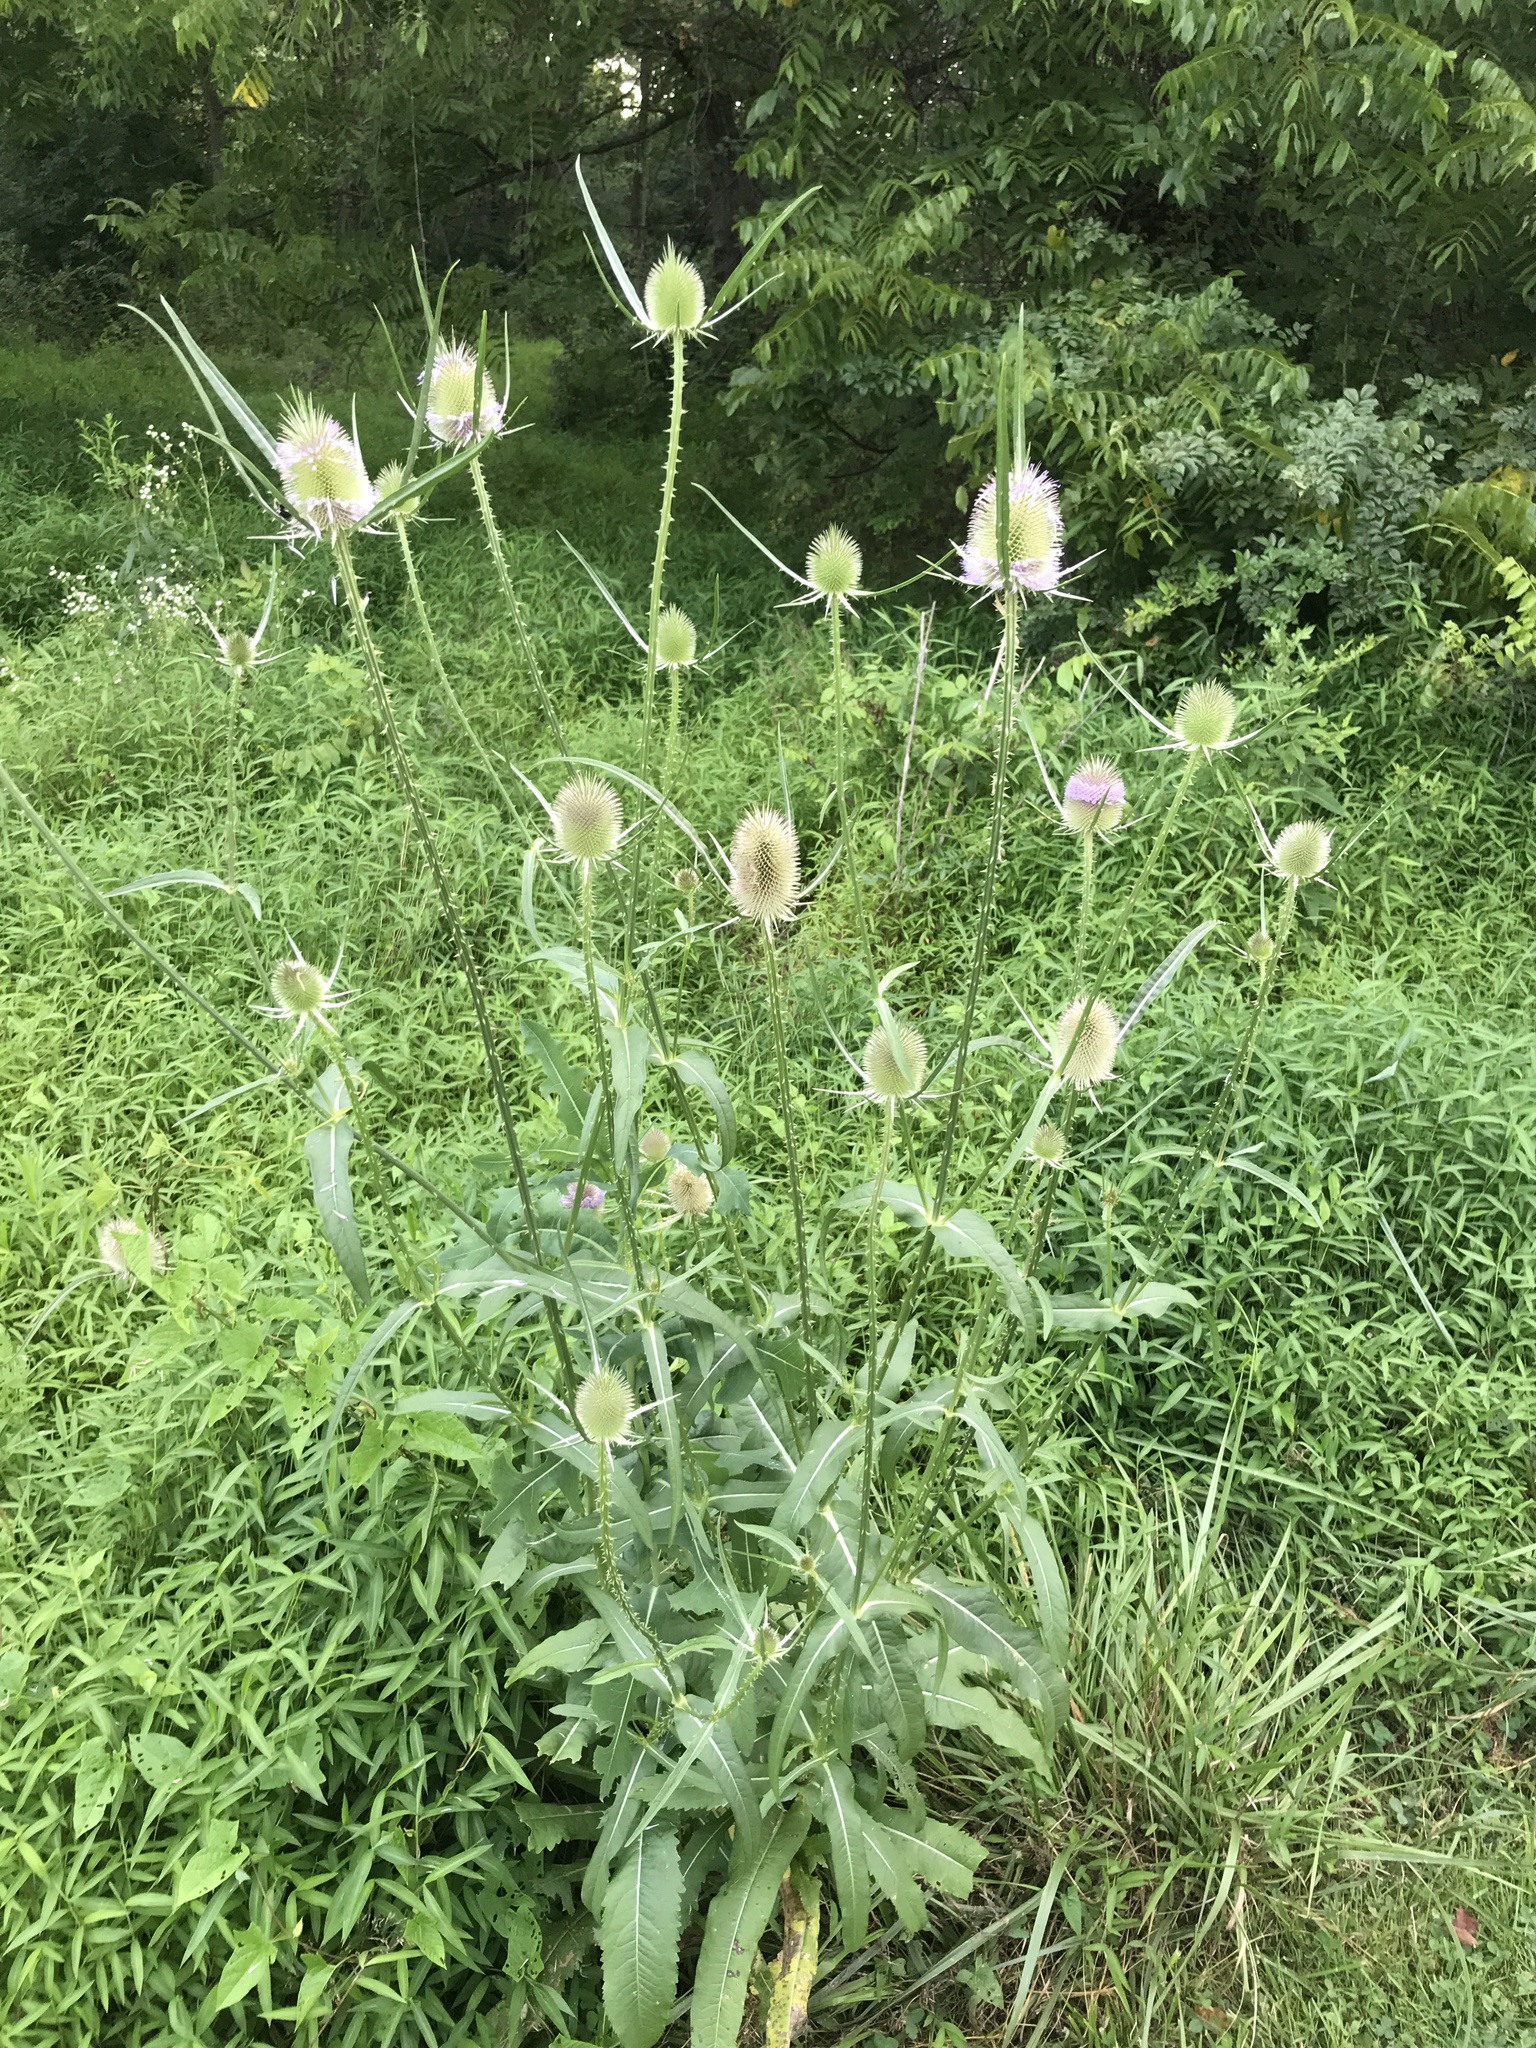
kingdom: Plantae
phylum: Tracheophyta
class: Magnoliopsida
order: Dipsacales
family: Caprifoliaceae
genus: Dipsacus
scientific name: Dipsacus fullonum
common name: Teasel
